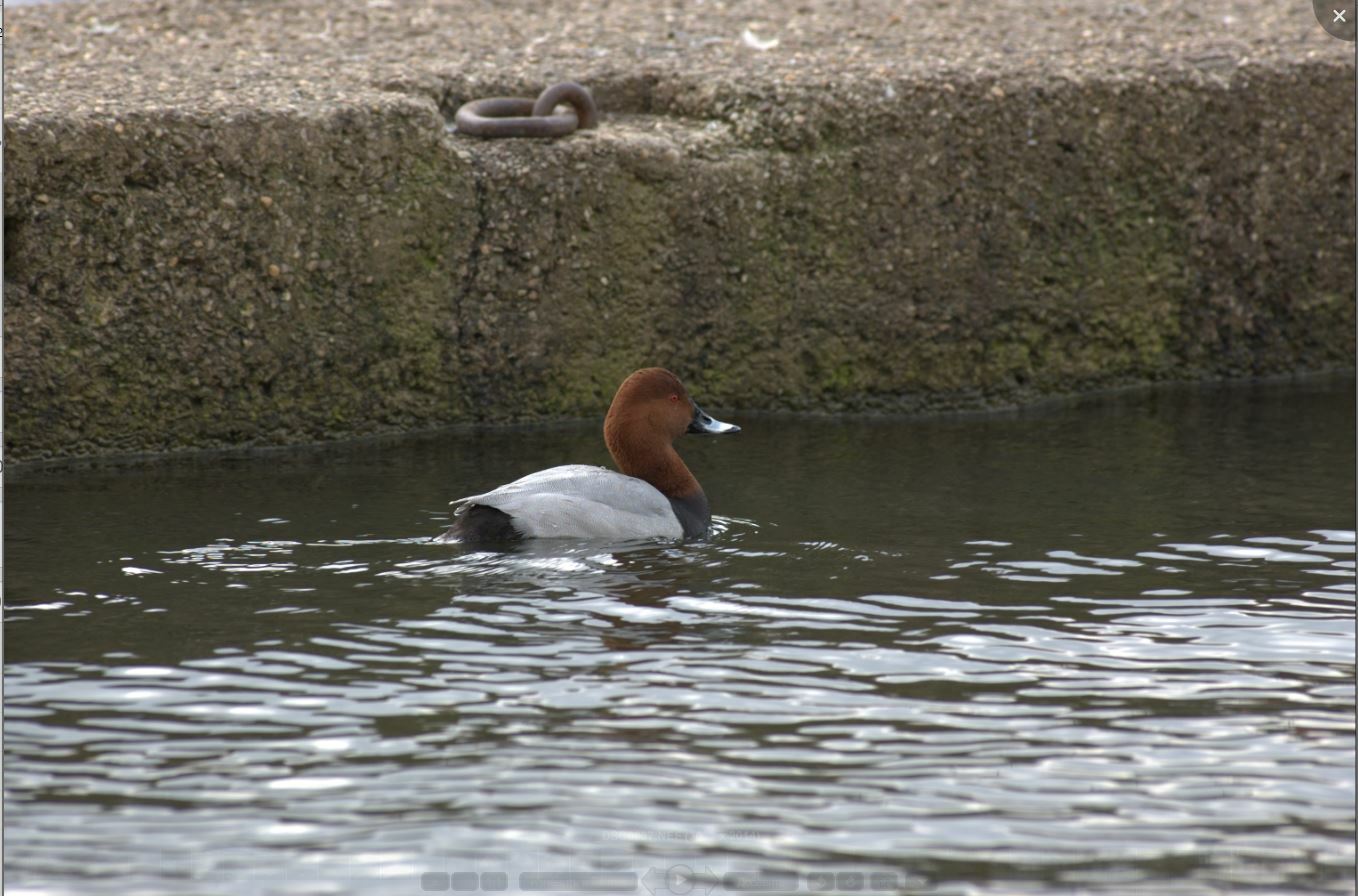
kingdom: Animalia
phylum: Chordata
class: Aves
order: Anseriformes
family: Anatidae
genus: Aythya
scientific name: Aythya ferina
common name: Common pochard
